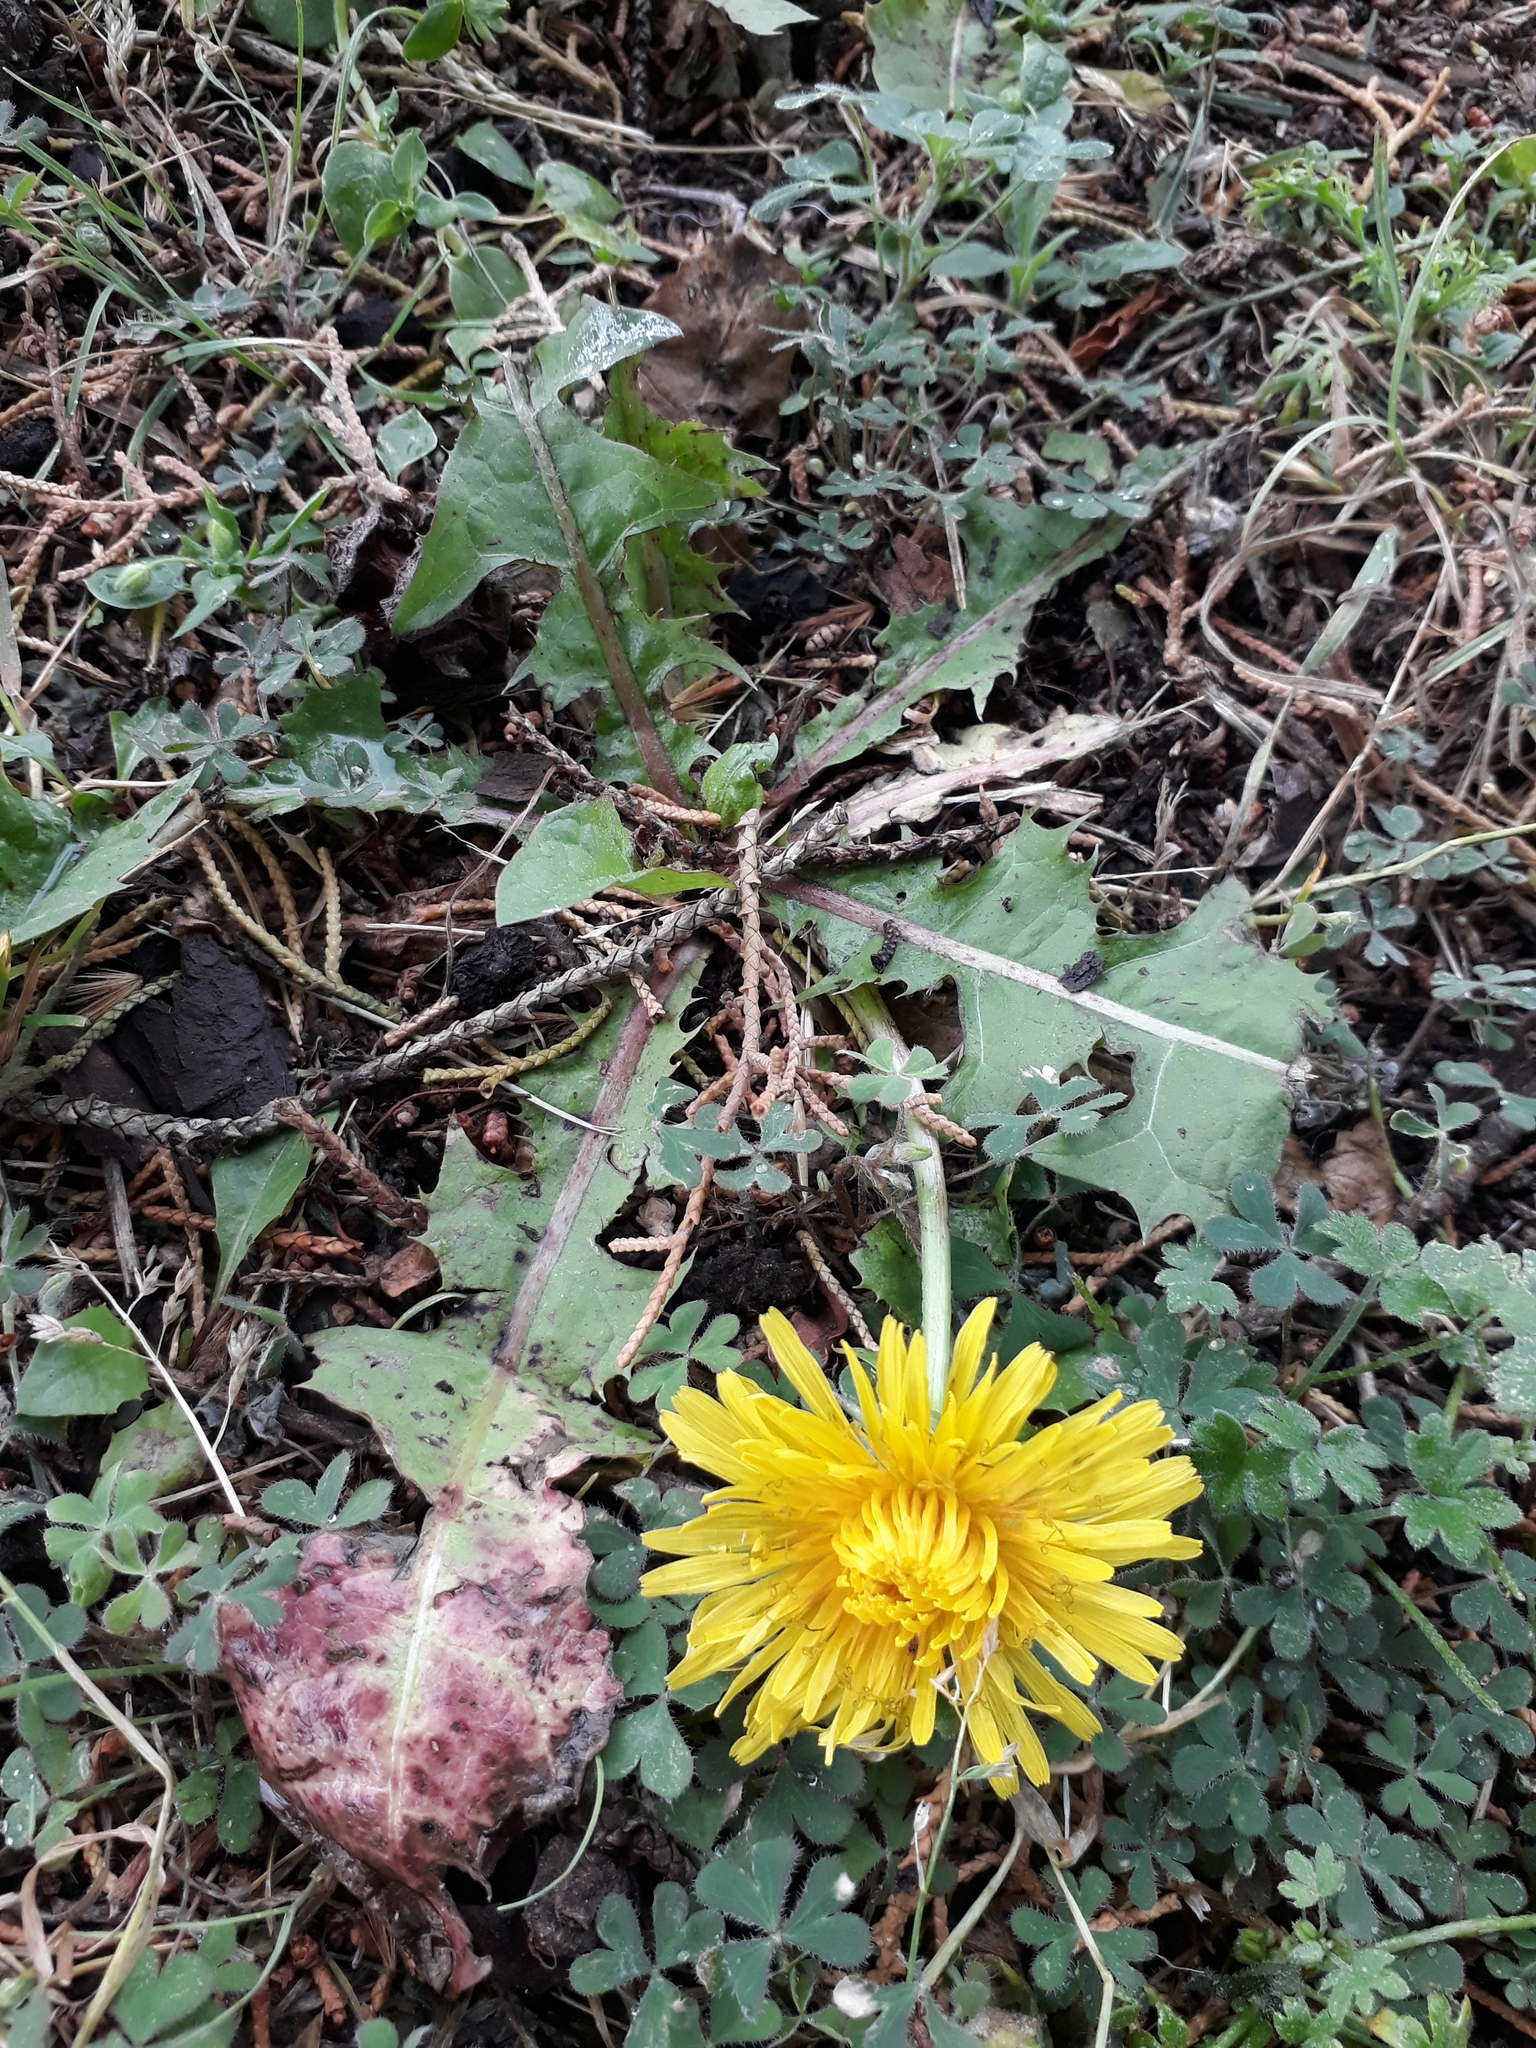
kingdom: Plantae
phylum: Tracheophyta
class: Magnoliopsida
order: Asterales
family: Asteraceae
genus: Taraxacum
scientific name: Taraxacum officinale
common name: Common dandelion
